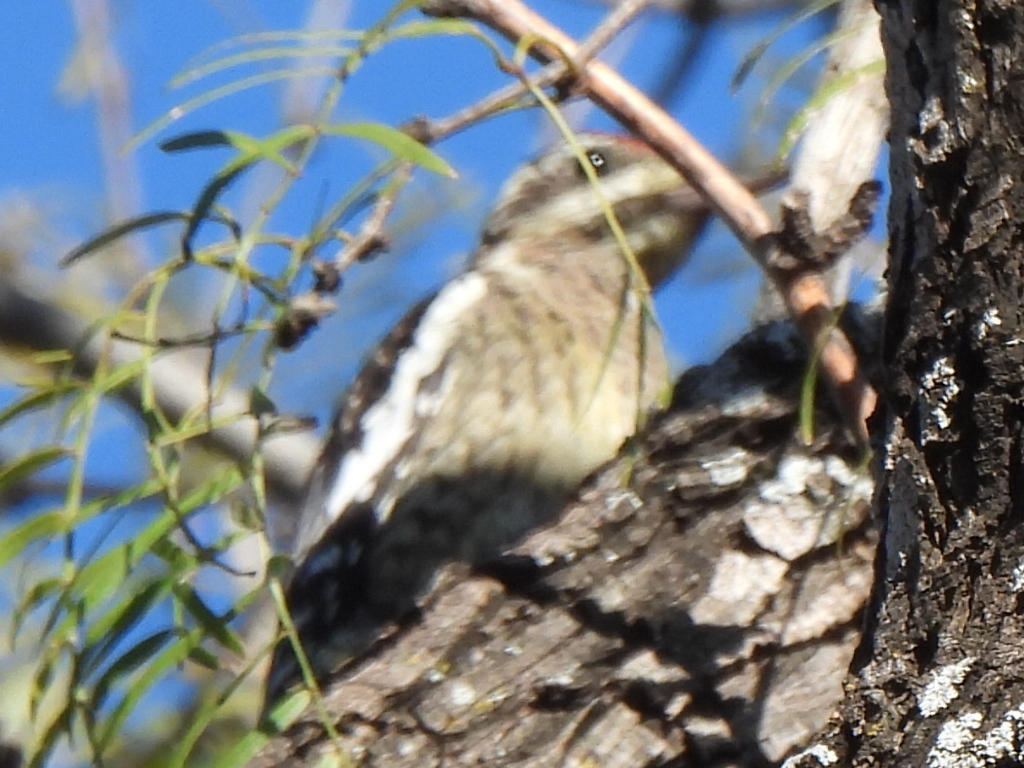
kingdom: Animalia
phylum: Chordata
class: Aves
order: Piciformes
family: Picidae
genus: Sphyrapicus
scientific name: Sphyrapicus varius
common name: Yellow-bellied sapsucker
